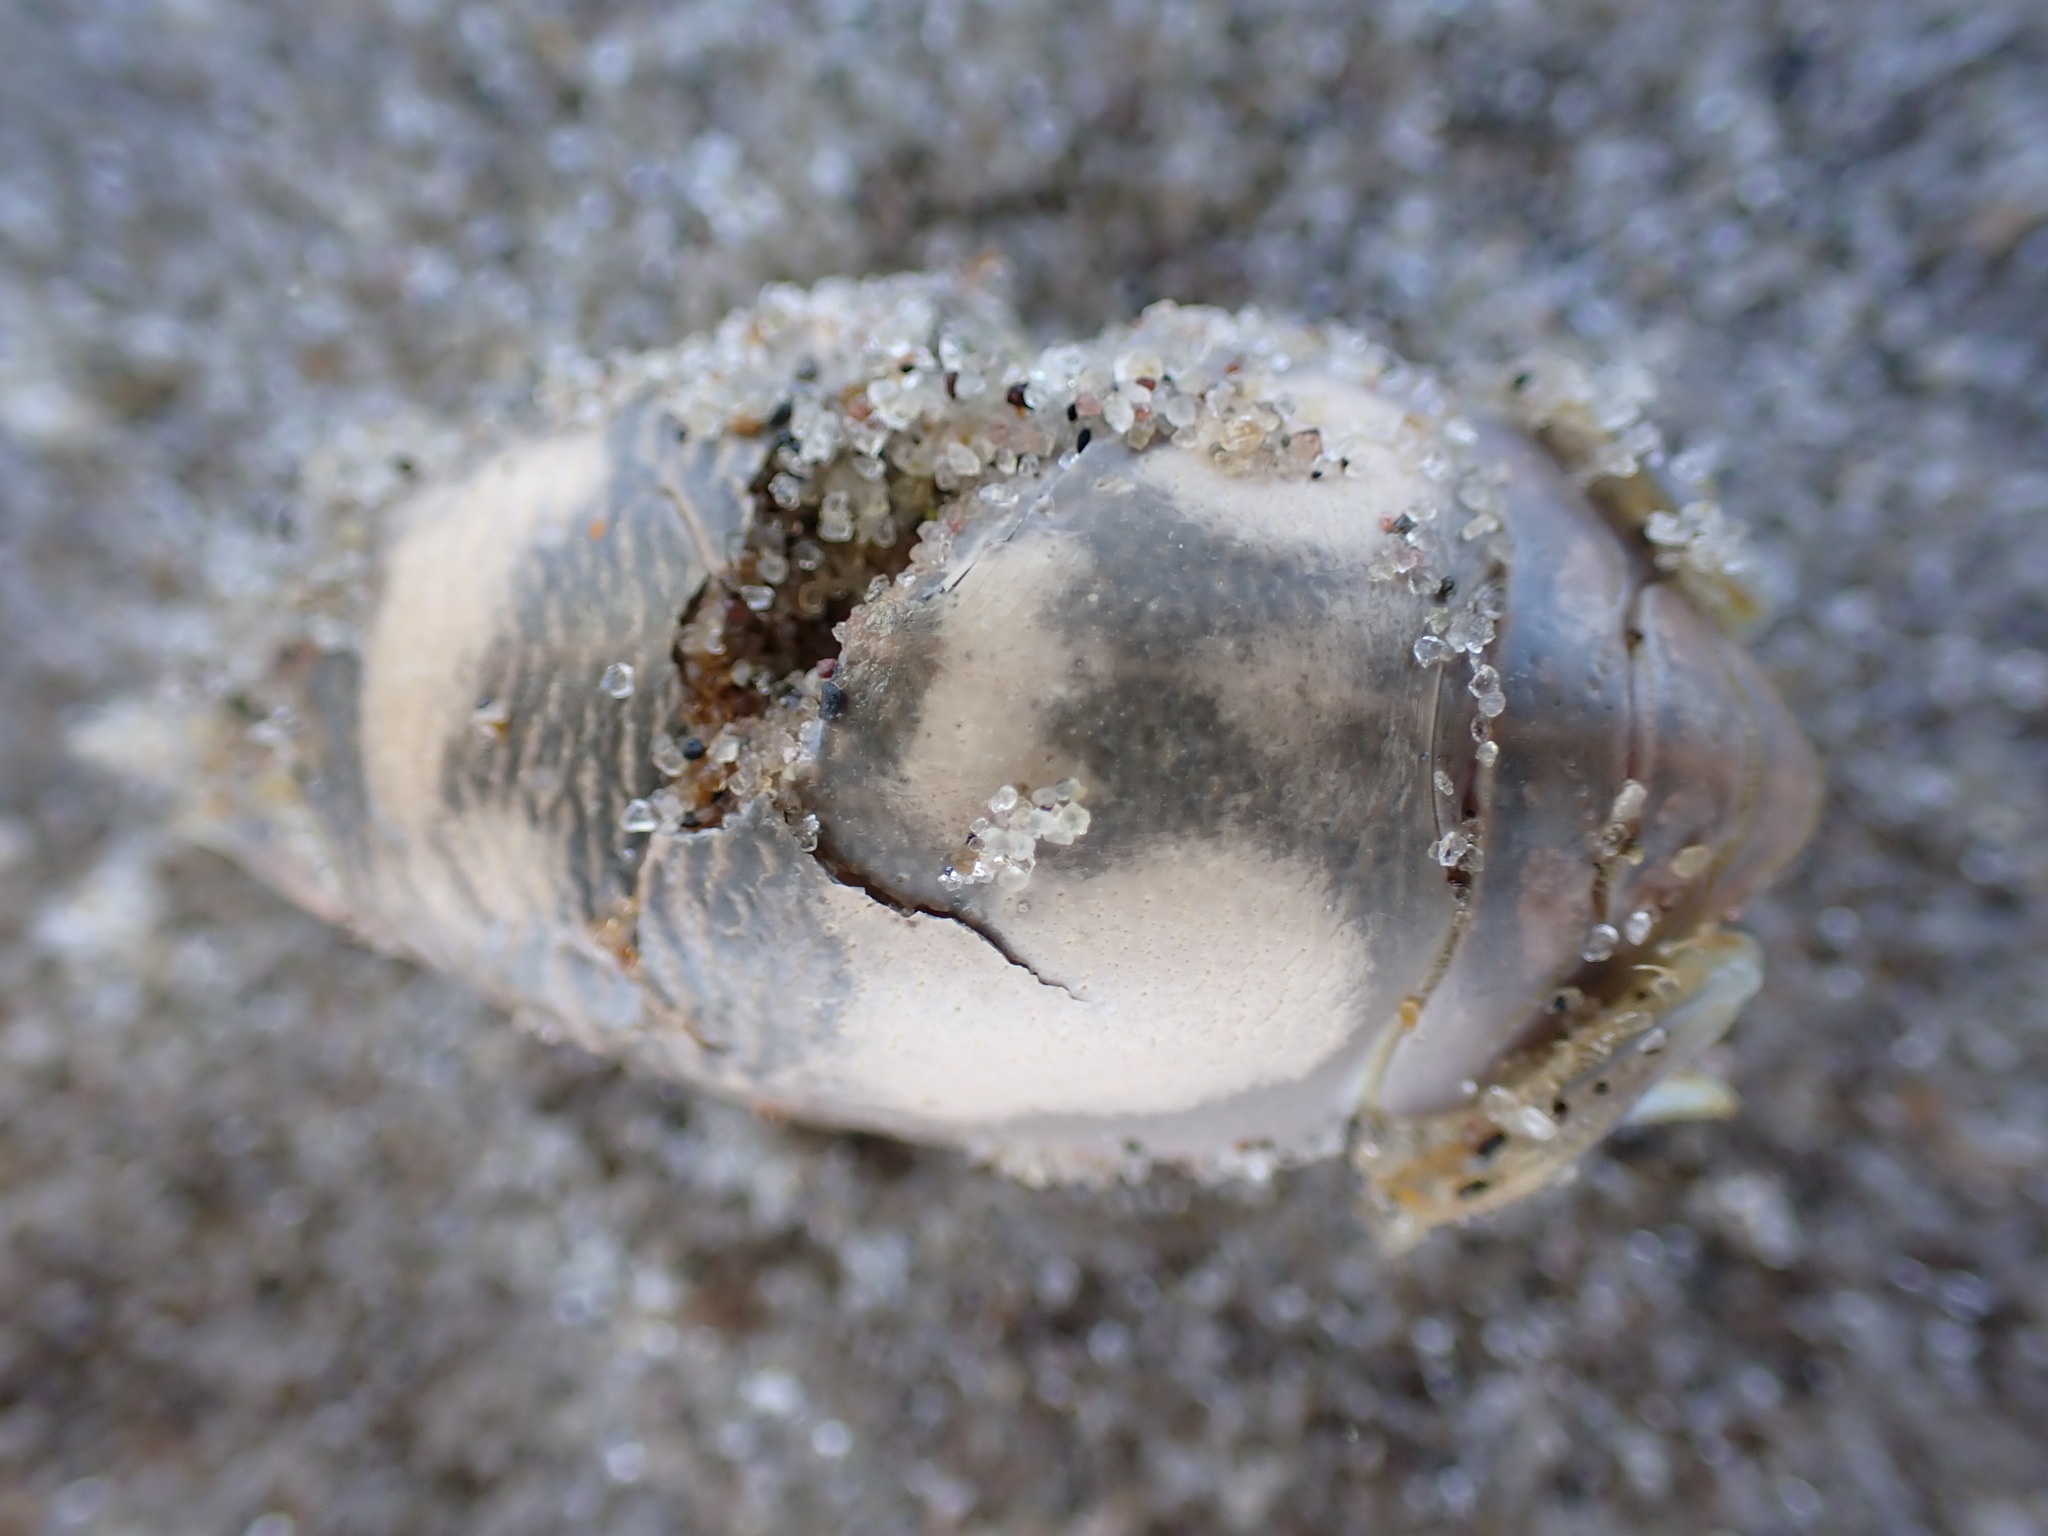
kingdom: Animalia
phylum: Arthropoda
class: Malacostraca
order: Decapoda
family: Hippidae
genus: Emerita
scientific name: Emerita talpoida
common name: Atlantic sand crab
